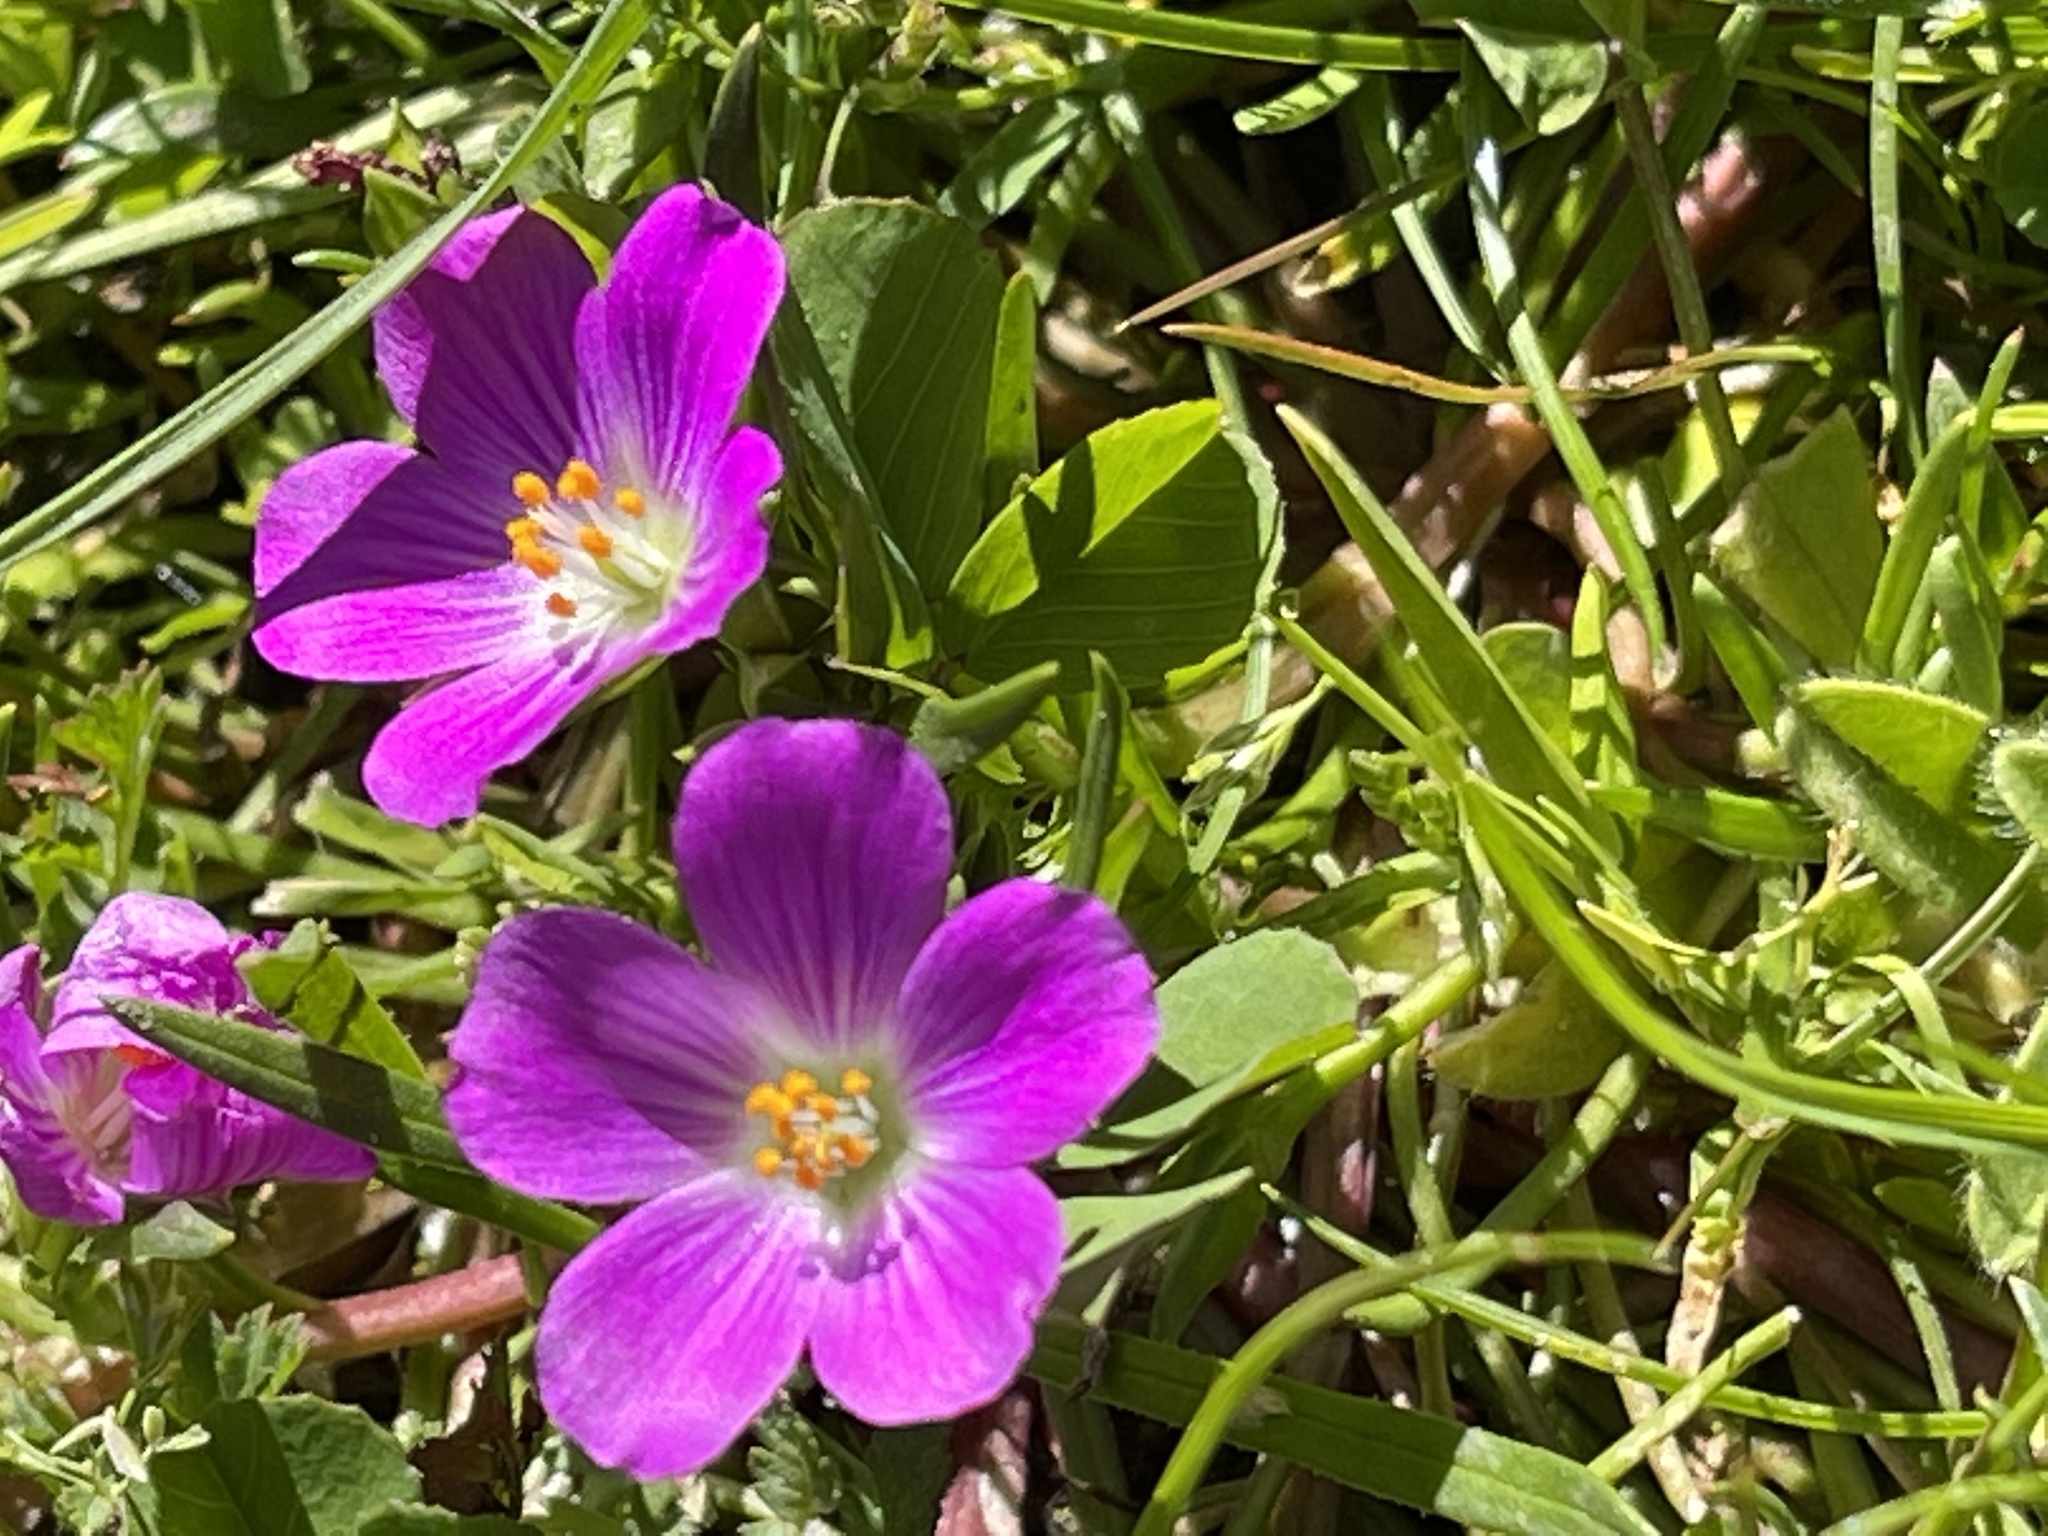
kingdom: Plantae
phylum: Tracheophyta
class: Magnoliopsida
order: Caryophyllales
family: Montiaceae
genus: Calandrinia
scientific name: Calandrinia menziesii
